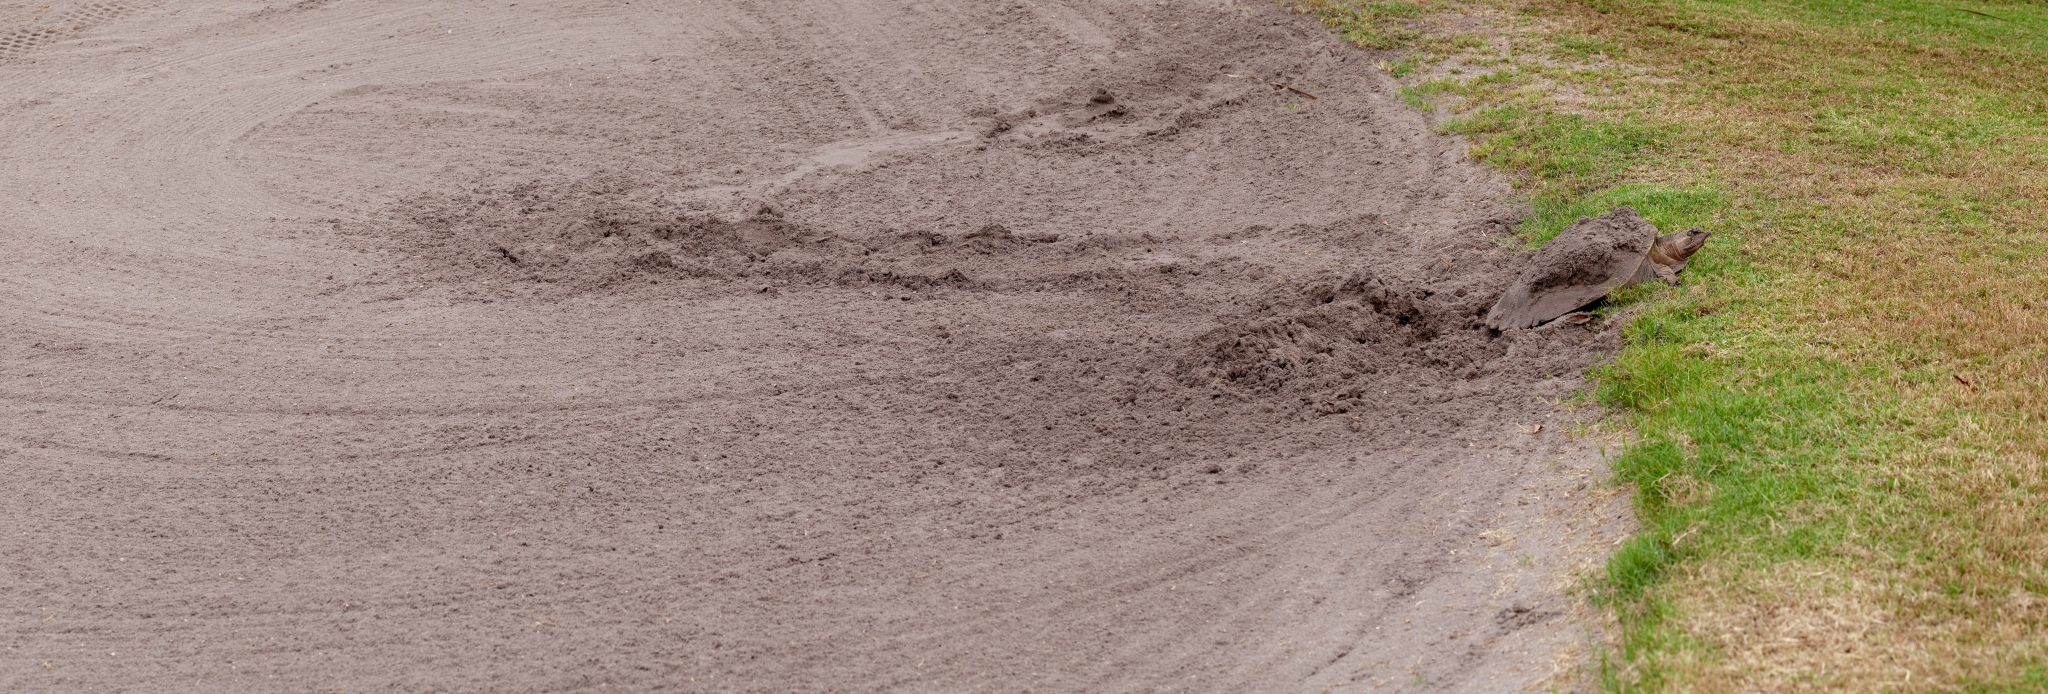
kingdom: Animalia
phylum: Chordata
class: Testudines
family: Trionychidae
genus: Apalone
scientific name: Apalone ferox
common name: Florida softshell turtle
